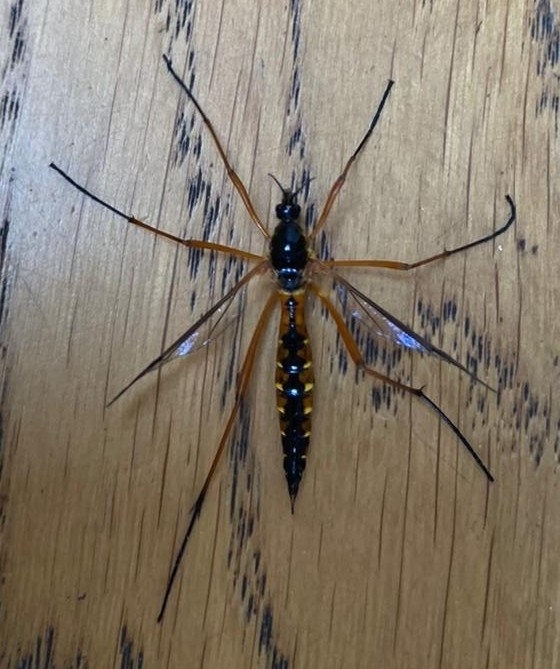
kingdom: Animalia
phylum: Arthropoda
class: Insecta
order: Diptera
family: Tipulidae
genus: Ctenophora
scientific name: Ctenophora pectinicornis
